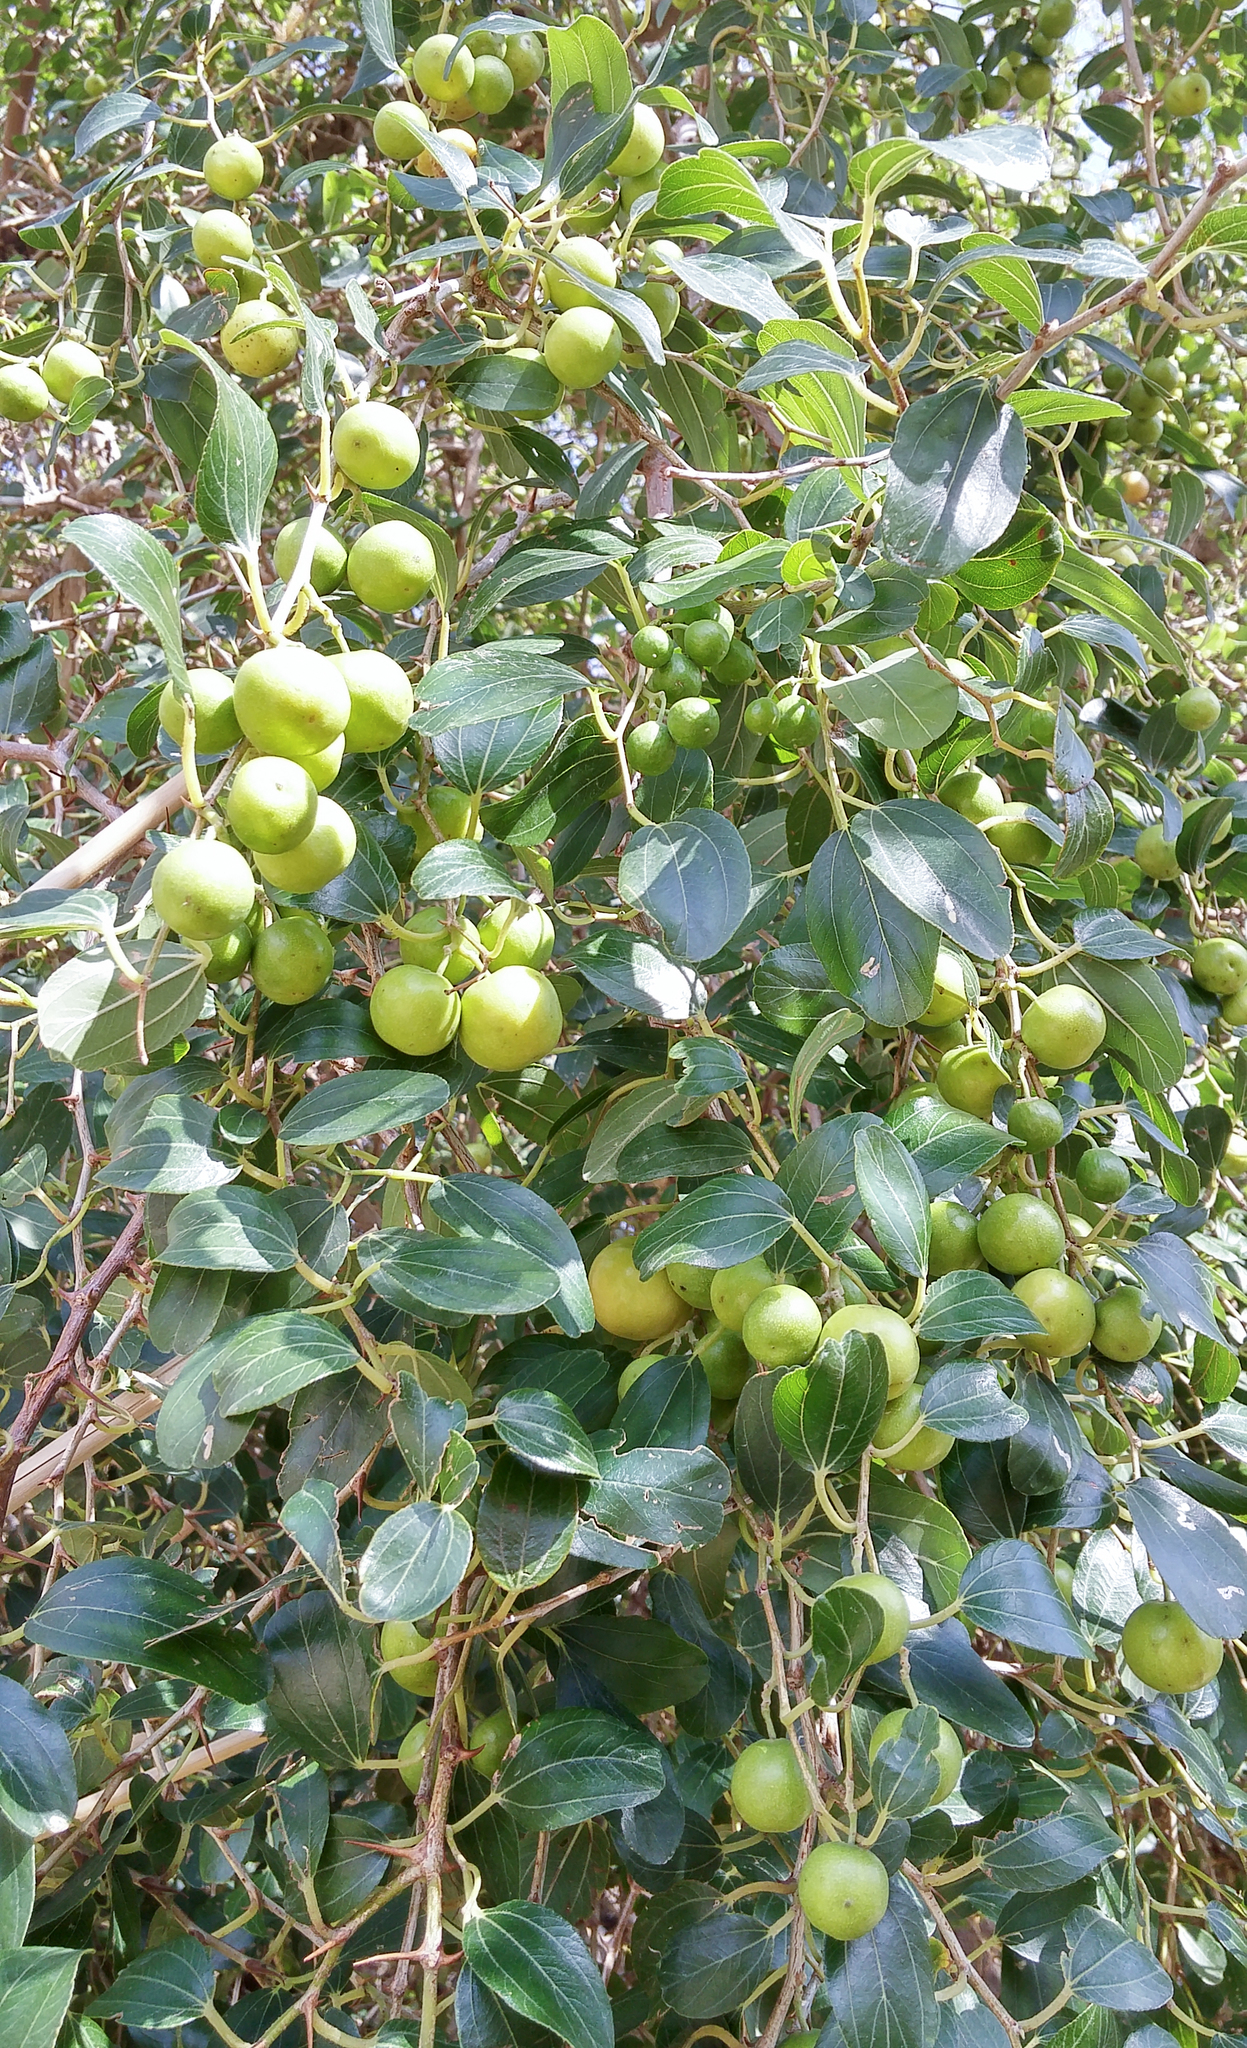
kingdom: Plantae
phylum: Tracheophyta
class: Magnoliopsida
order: Rosales
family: Rhamnaceae
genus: Ziziphus
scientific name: Ziziphus spina-christi
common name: Syrian christ-thorn
